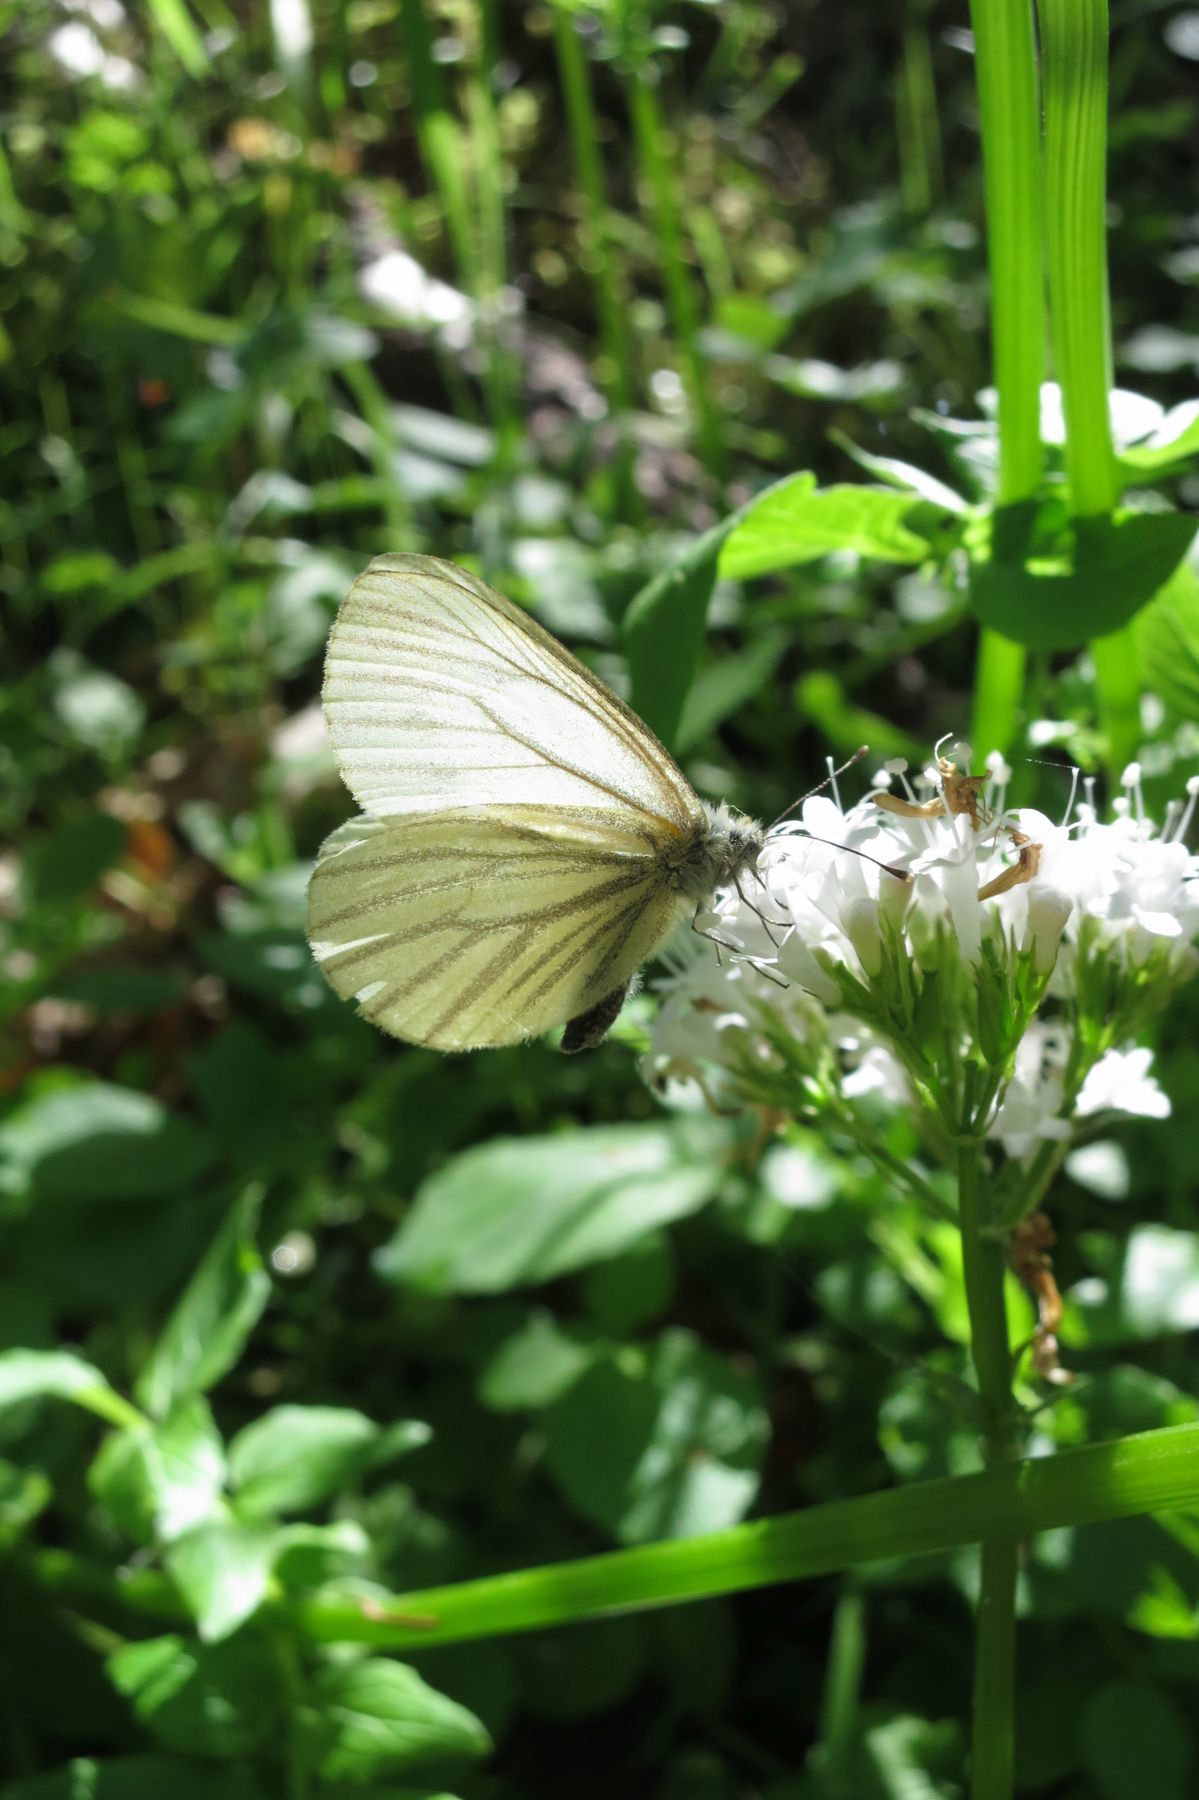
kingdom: Animalia
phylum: Arthropoda
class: Insecta
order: Lepidoptera
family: Pieridae
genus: Pieris
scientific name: Pieris marginalis
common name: Margined white
